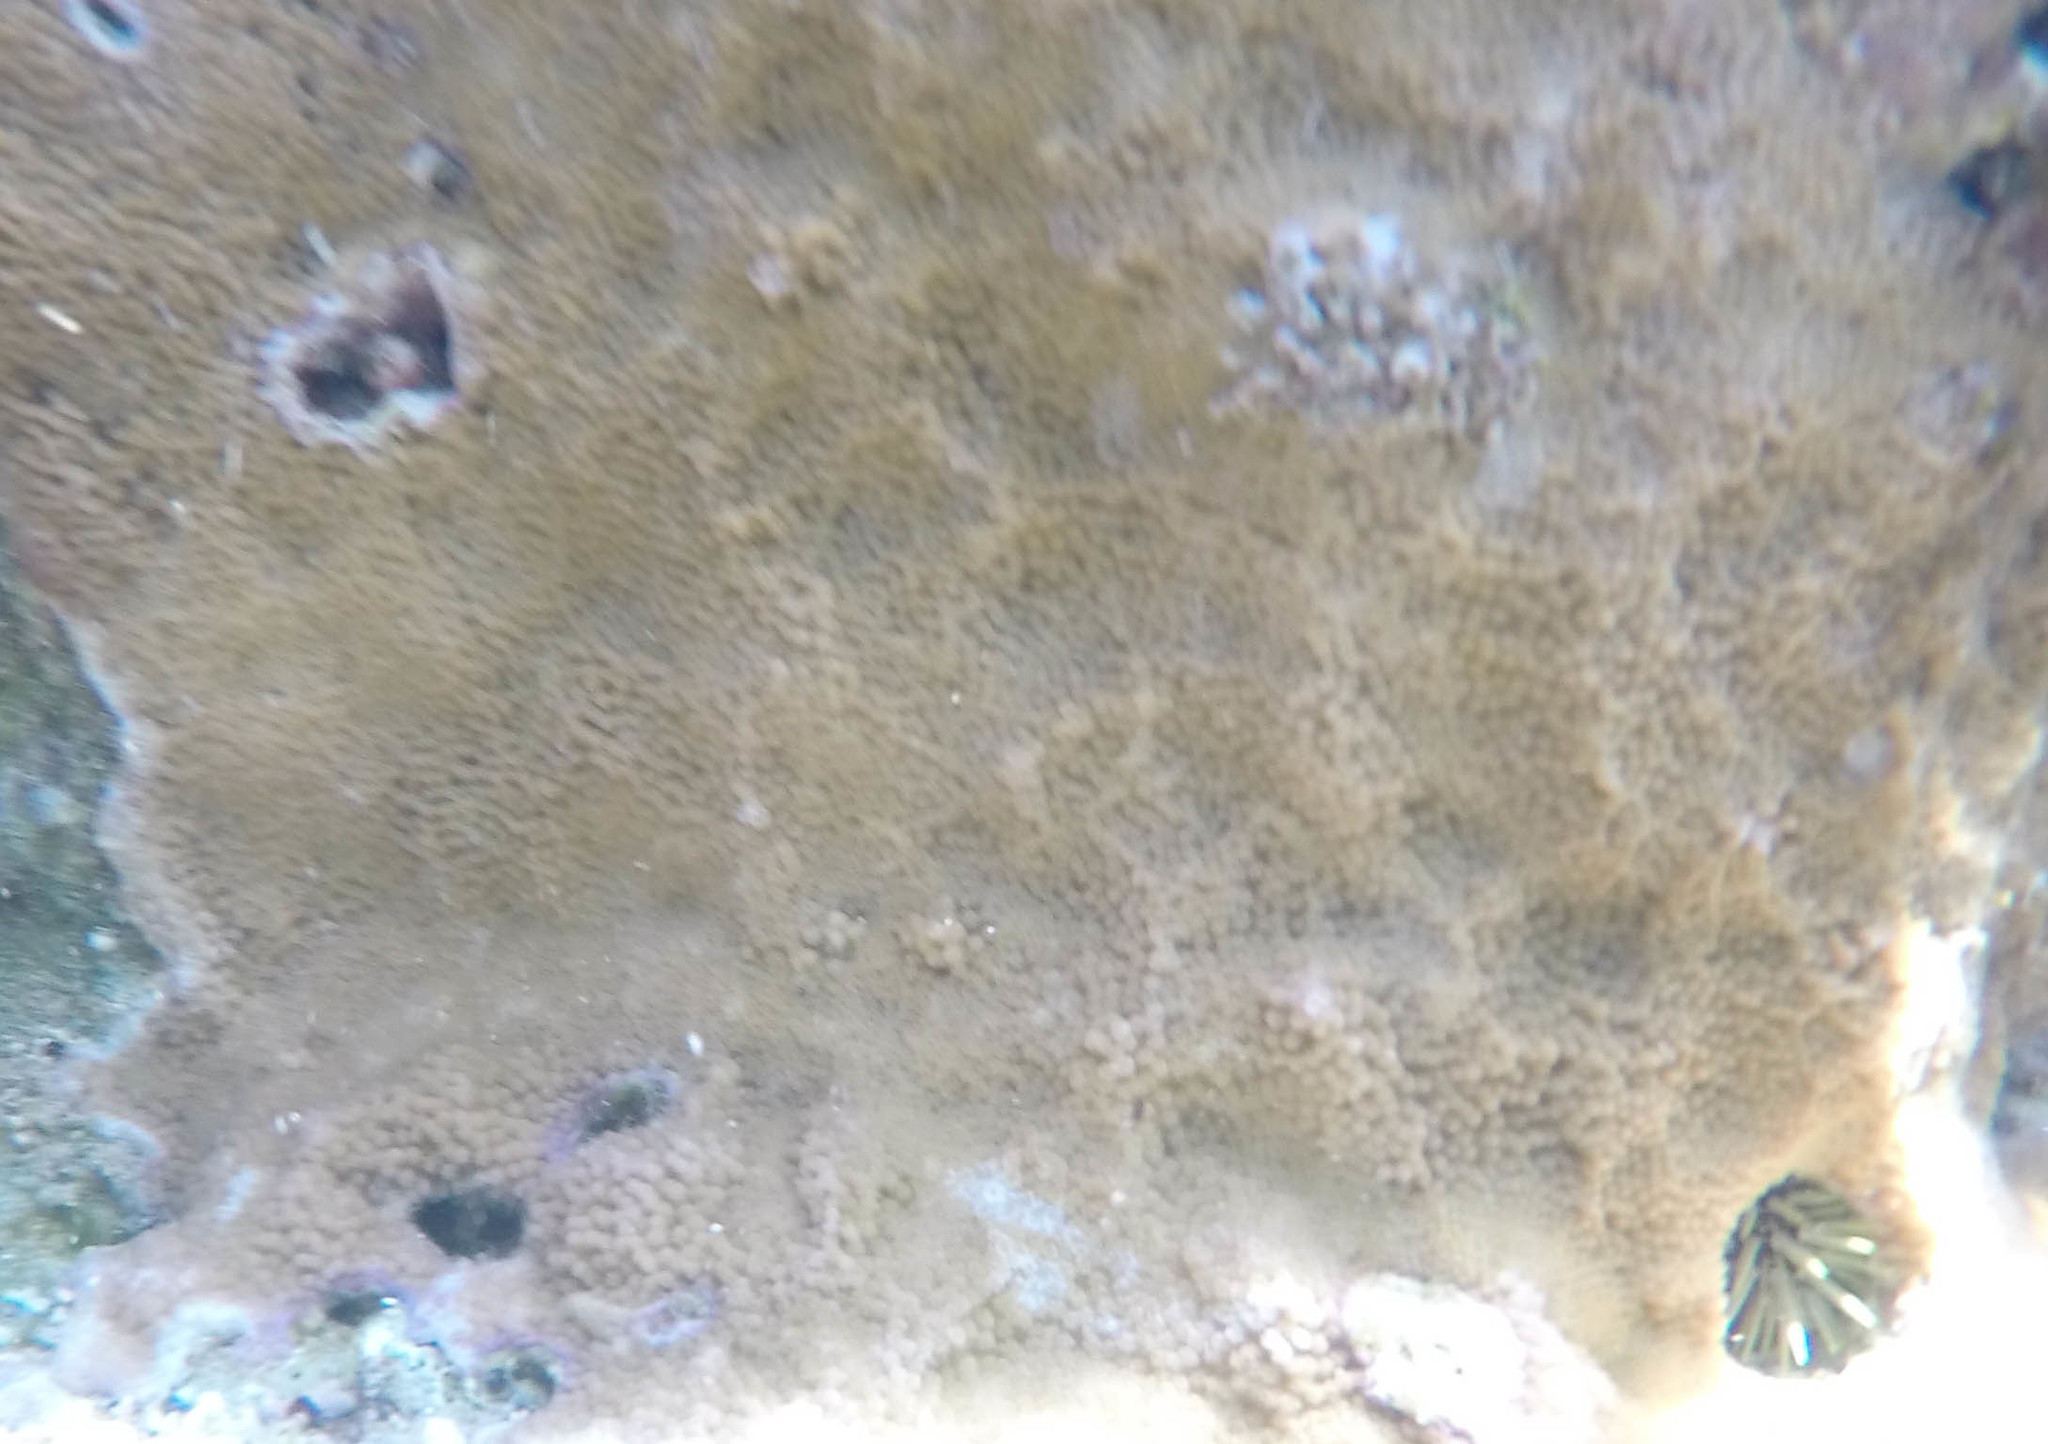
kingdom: Animalia
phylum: Cnidaria
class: Anthozoa
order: Scleractinia
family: Acroporidae
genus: Montipora
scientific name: Montipora capitata
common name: Pore coral
